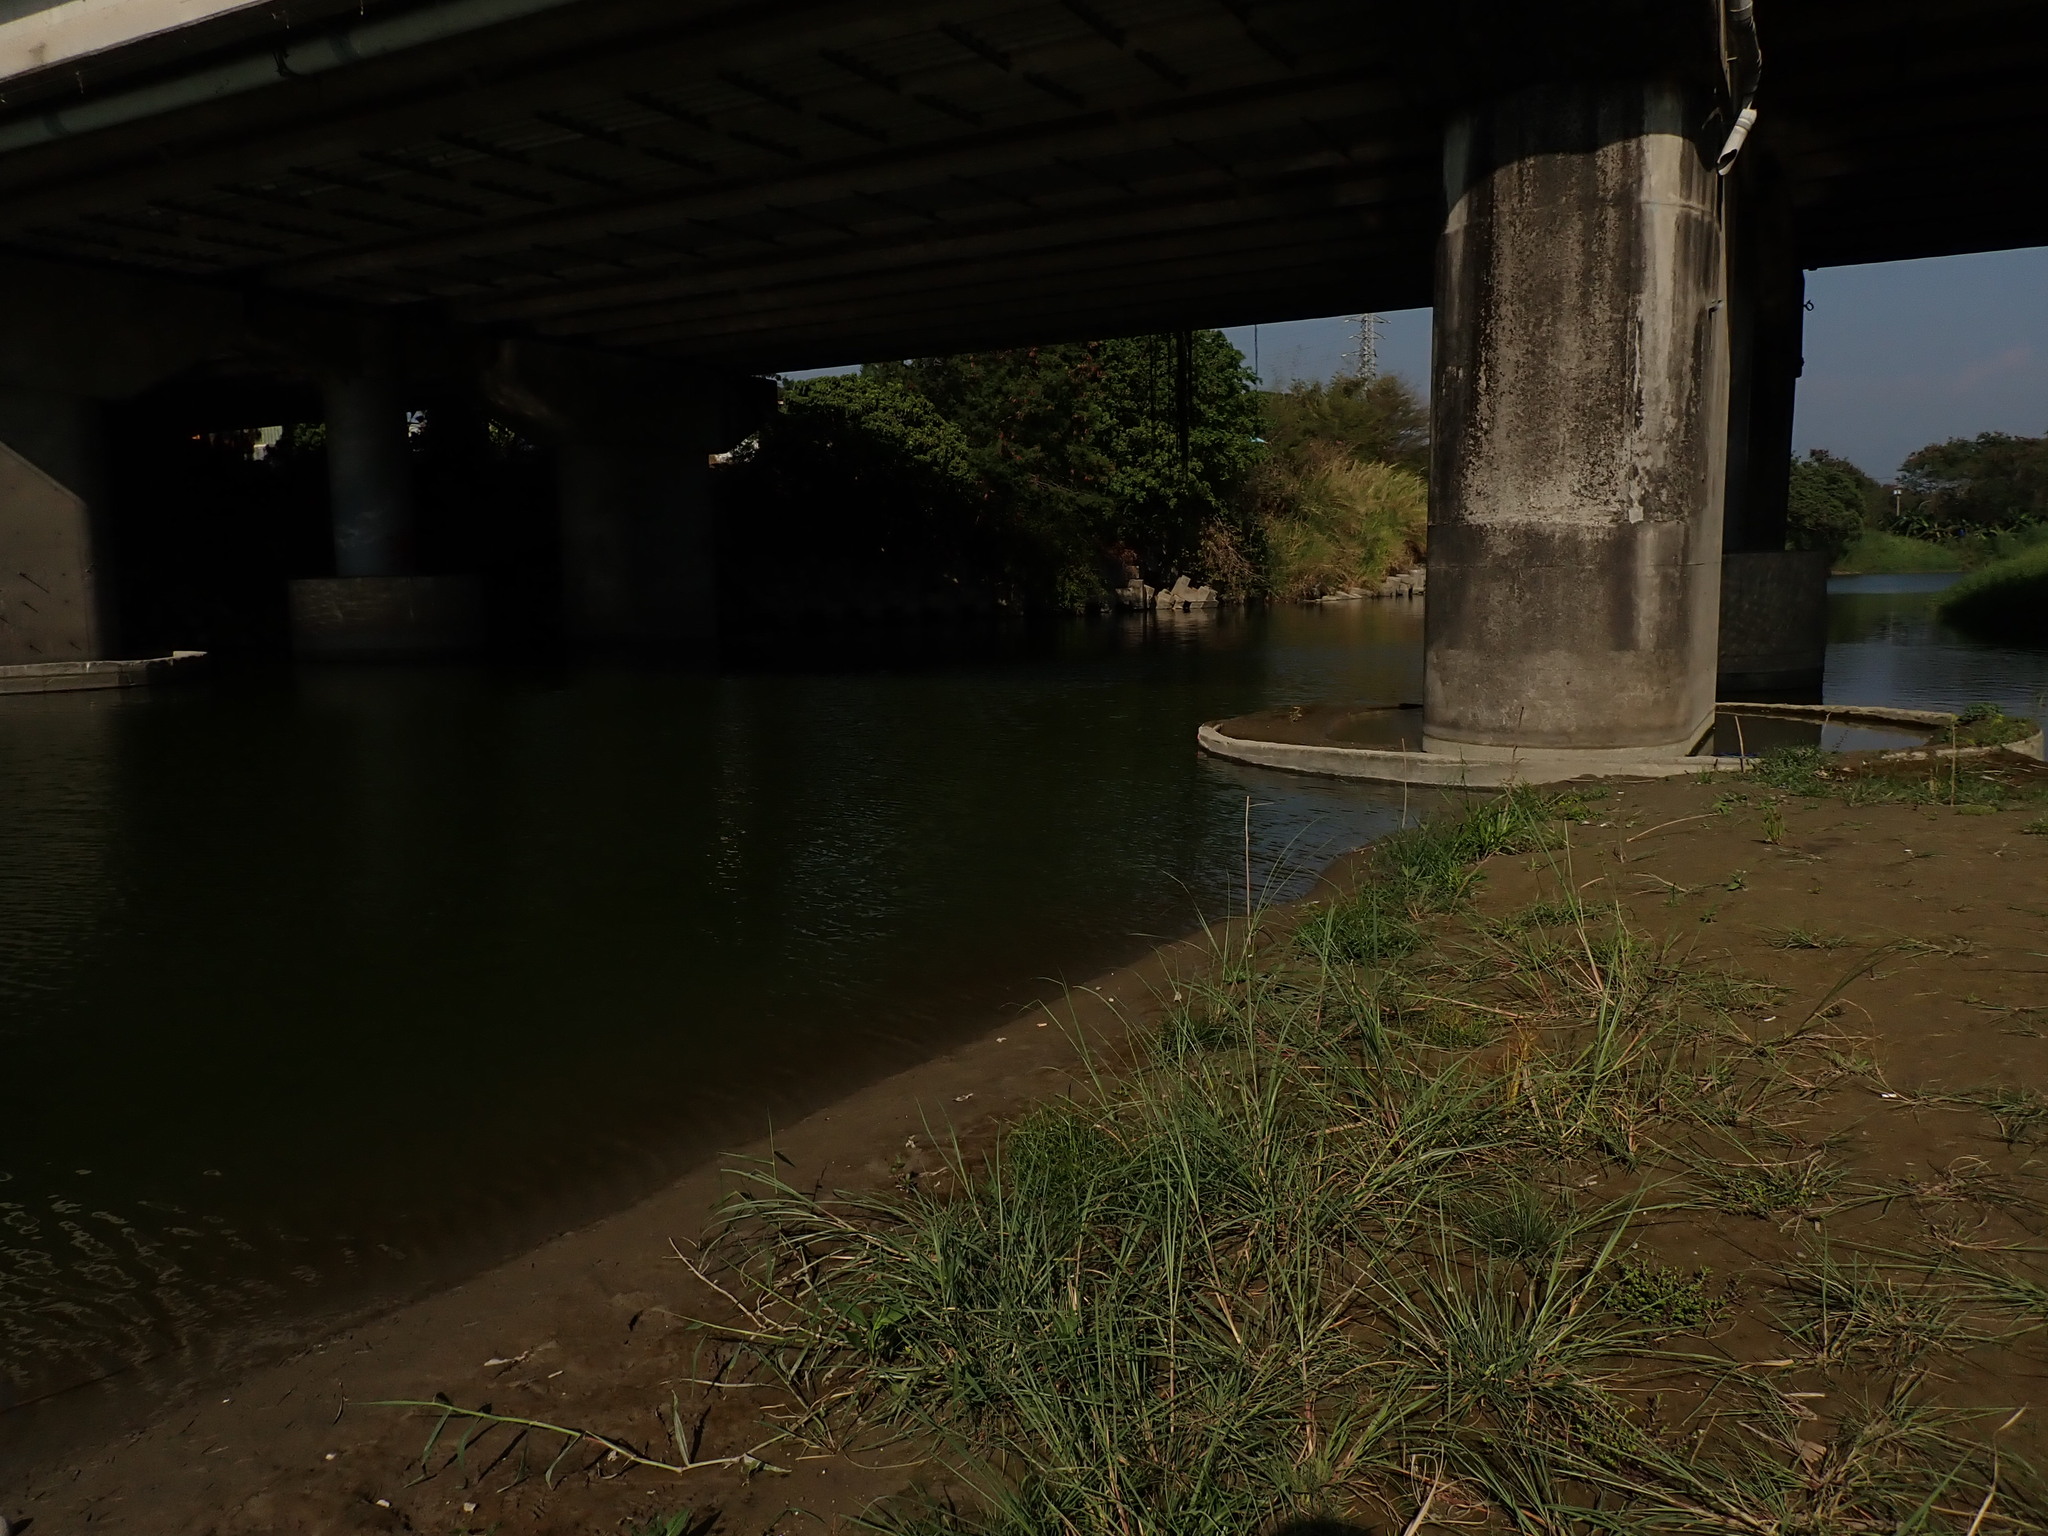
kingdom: Plantae
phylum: Tracheophyta
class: Liliopsida
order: Poales
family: Cyperaceae
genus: Cyperus
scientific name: Cyperus iria
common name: Ricefield flatsedge
